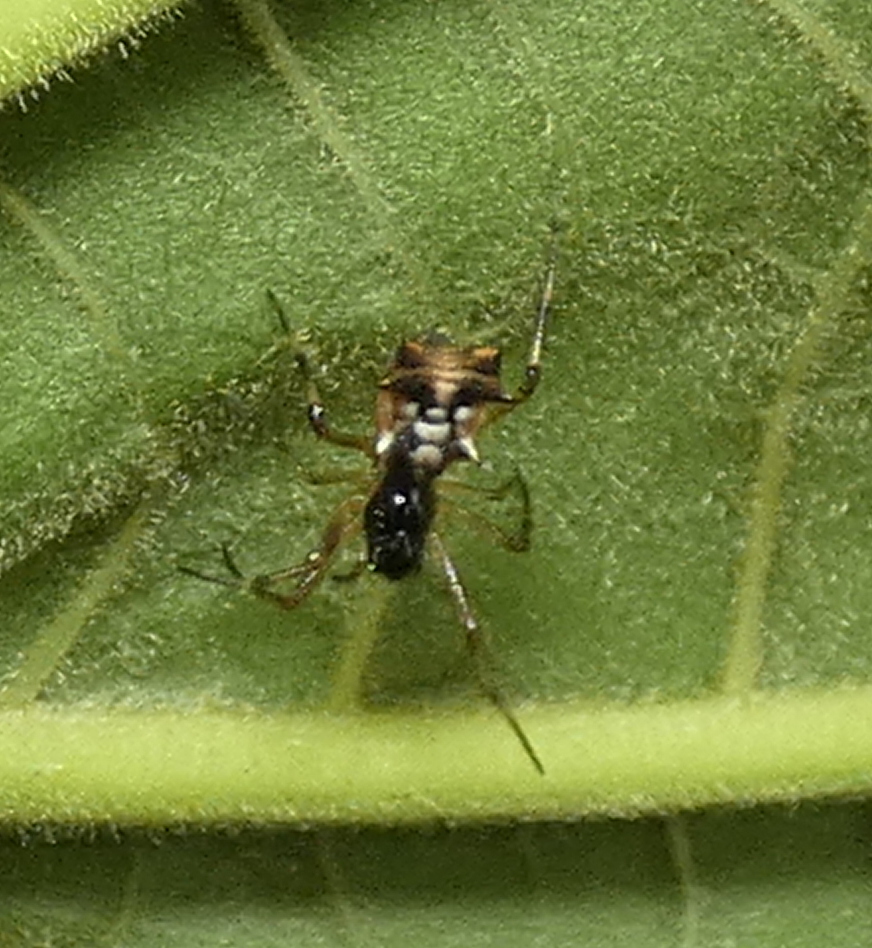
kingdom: Animalia
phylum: Arthropoda
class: Arachnida
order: Araneae
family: Araneidae
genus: Micrathena
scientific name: Micrathena picta
